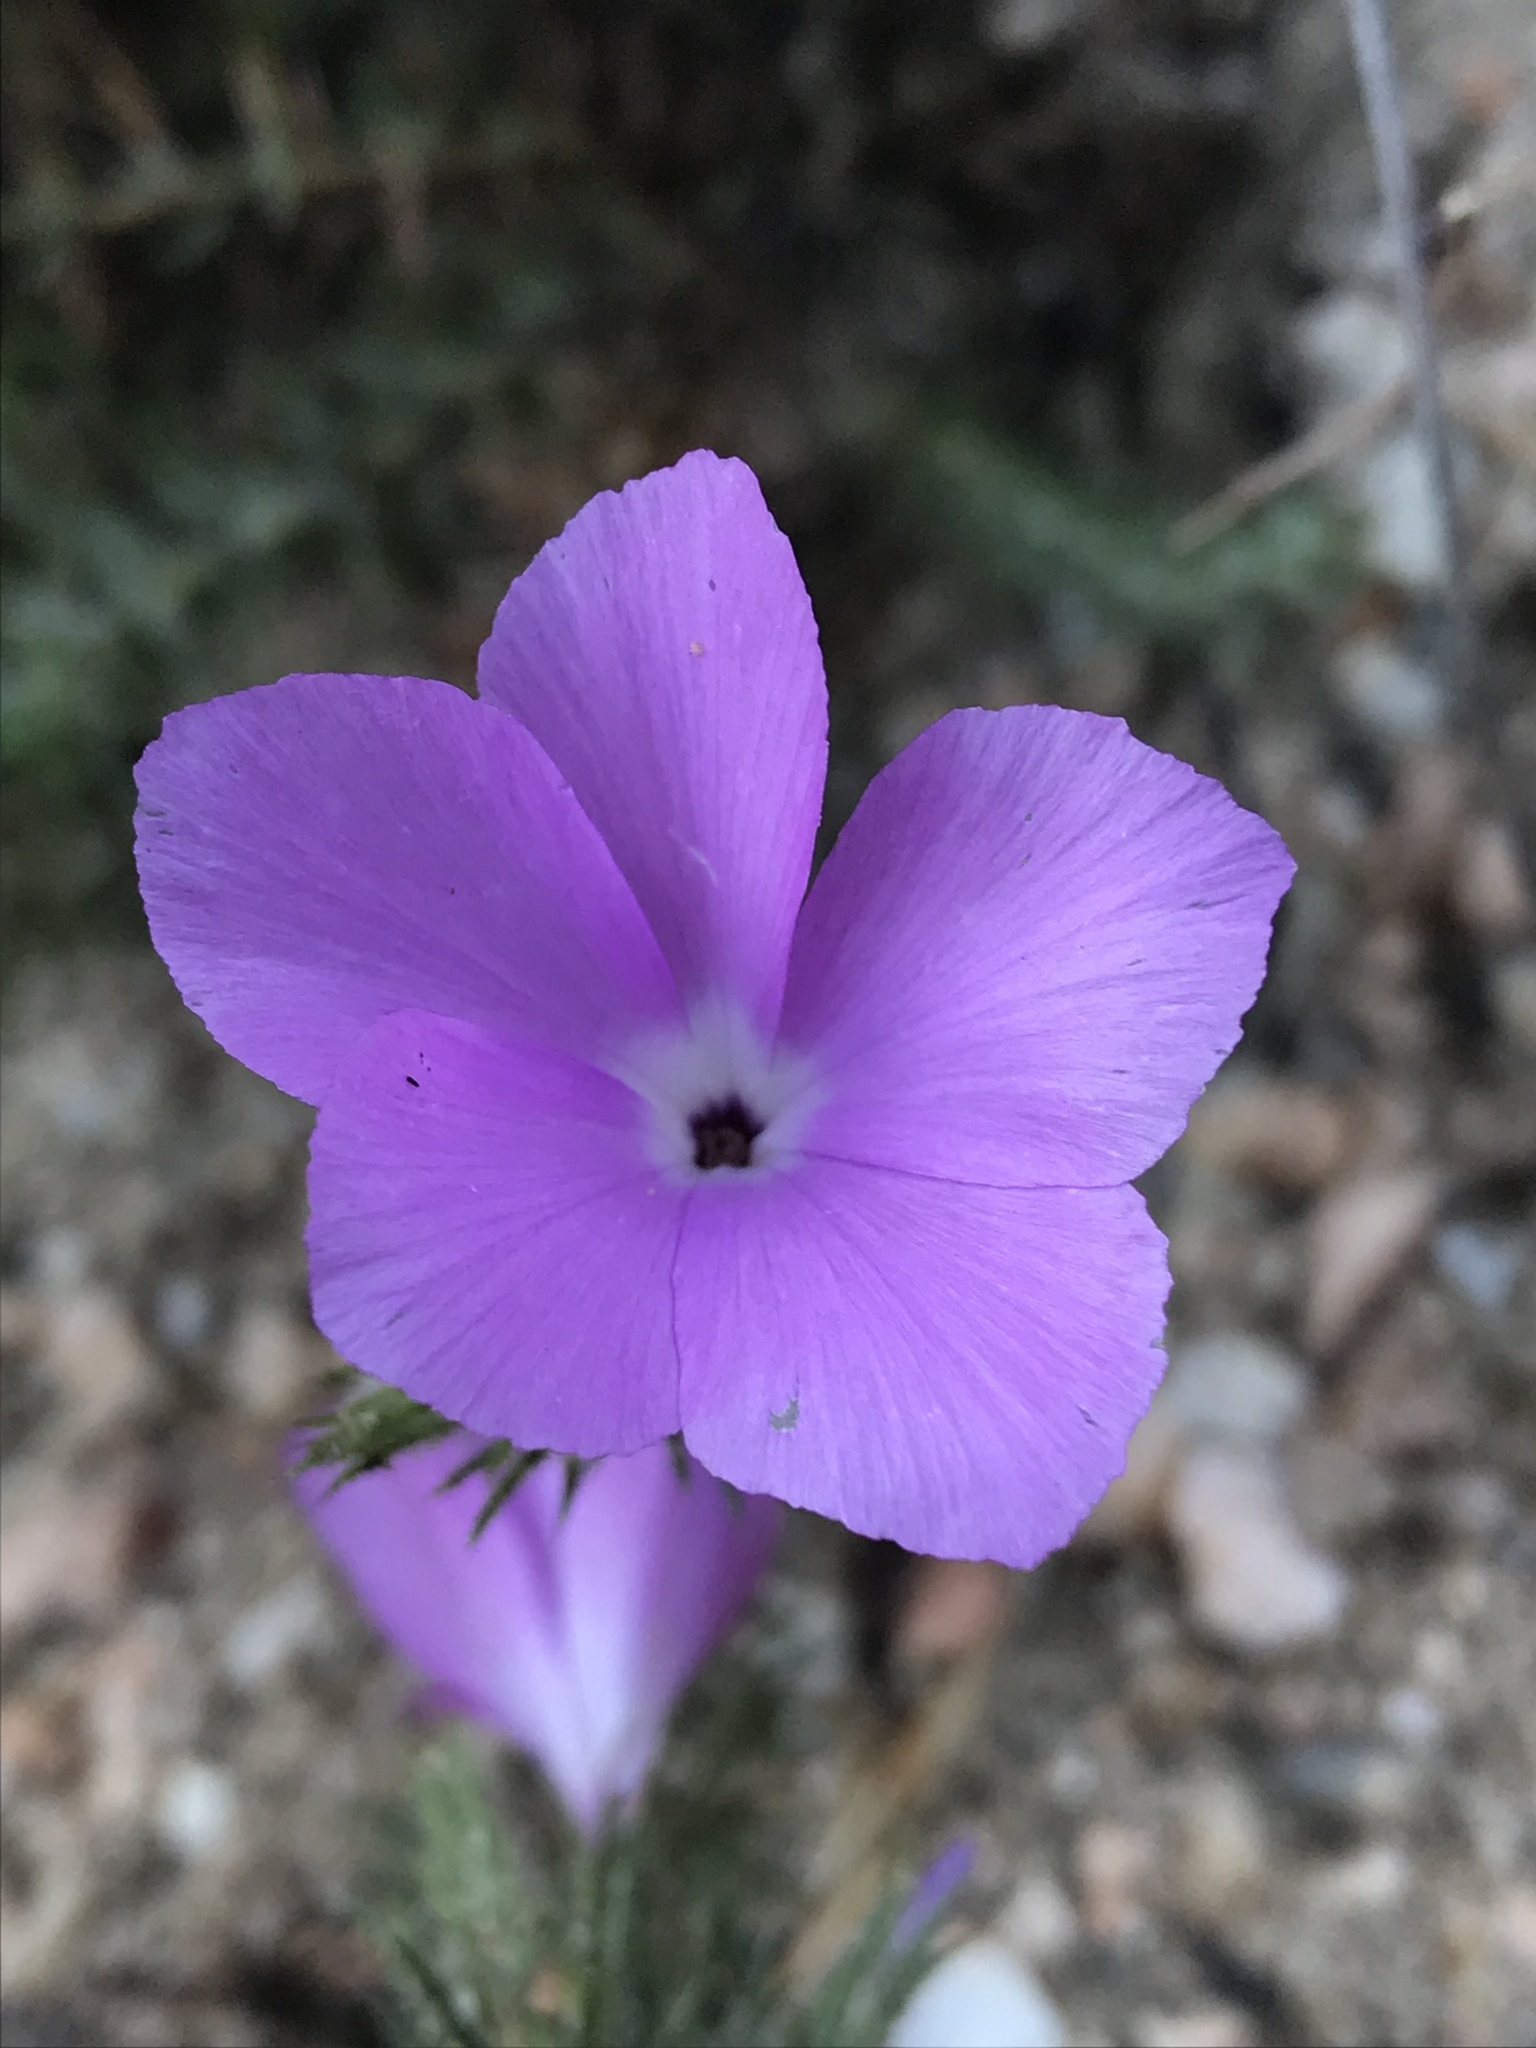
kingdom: Plantae
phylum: Tracheophyta
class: Magnoliopsida
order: Ericales
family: Polemoniaceae
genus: Linanthus
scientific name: Linanthus californicus
